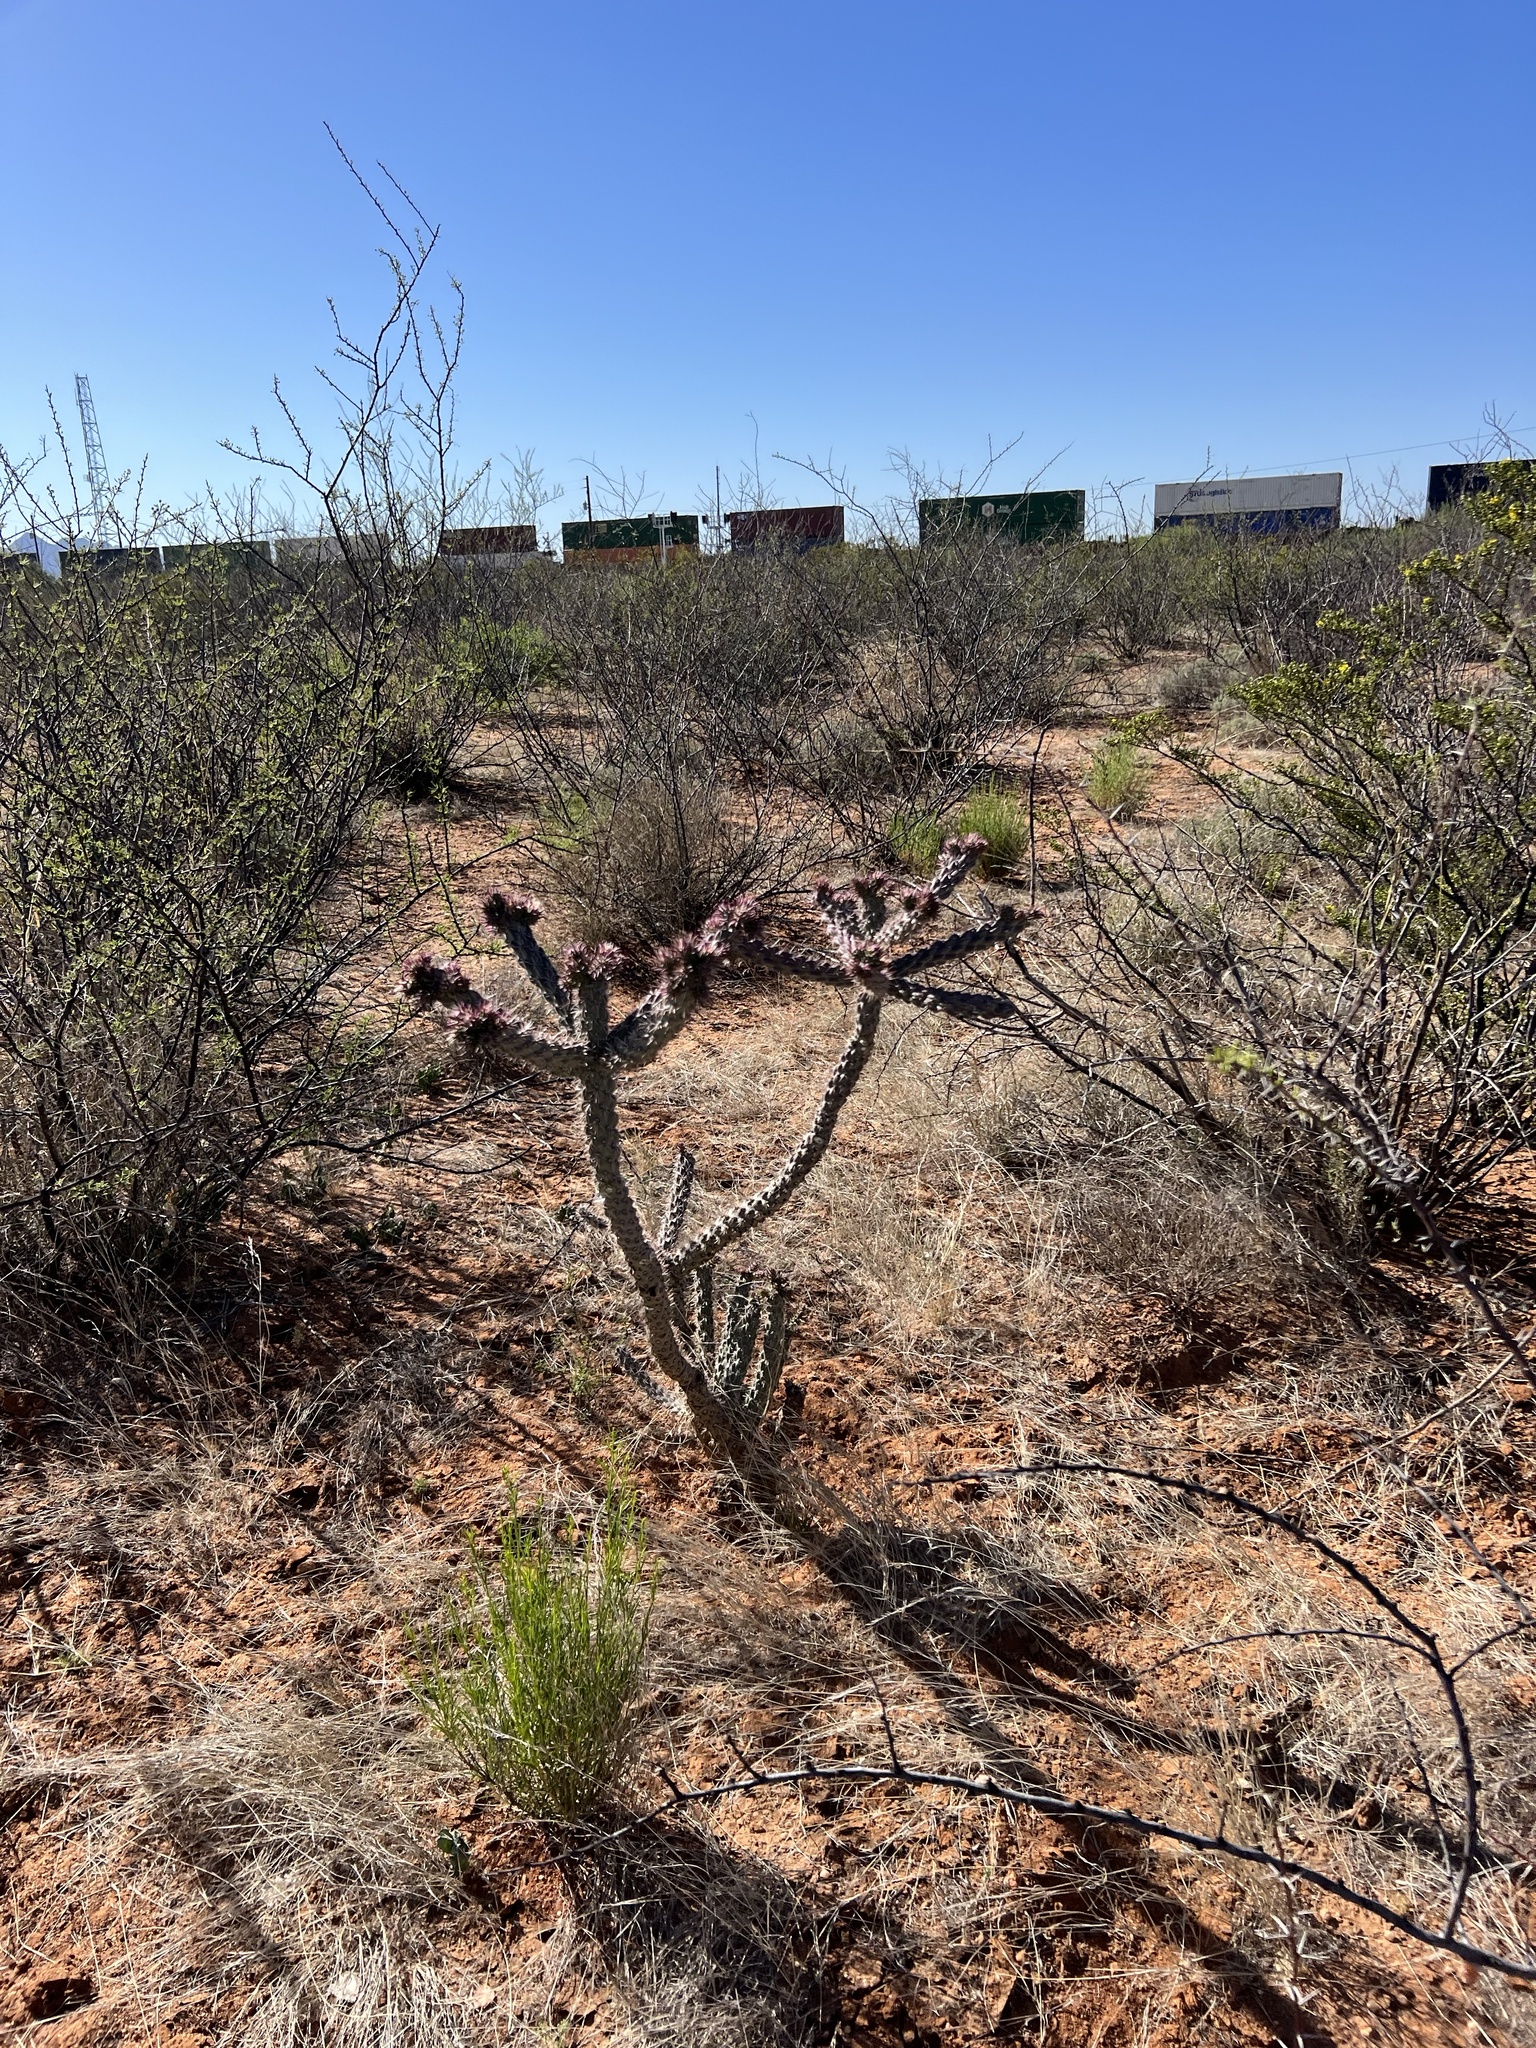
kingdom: Plantae
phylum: Tracheophyta
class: Magnoliopsida
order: Caryophyllales
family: Cactaceae
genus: Cylindropuntia
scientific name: Cylindropuntia imbricata
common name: Candelabrum cactus
